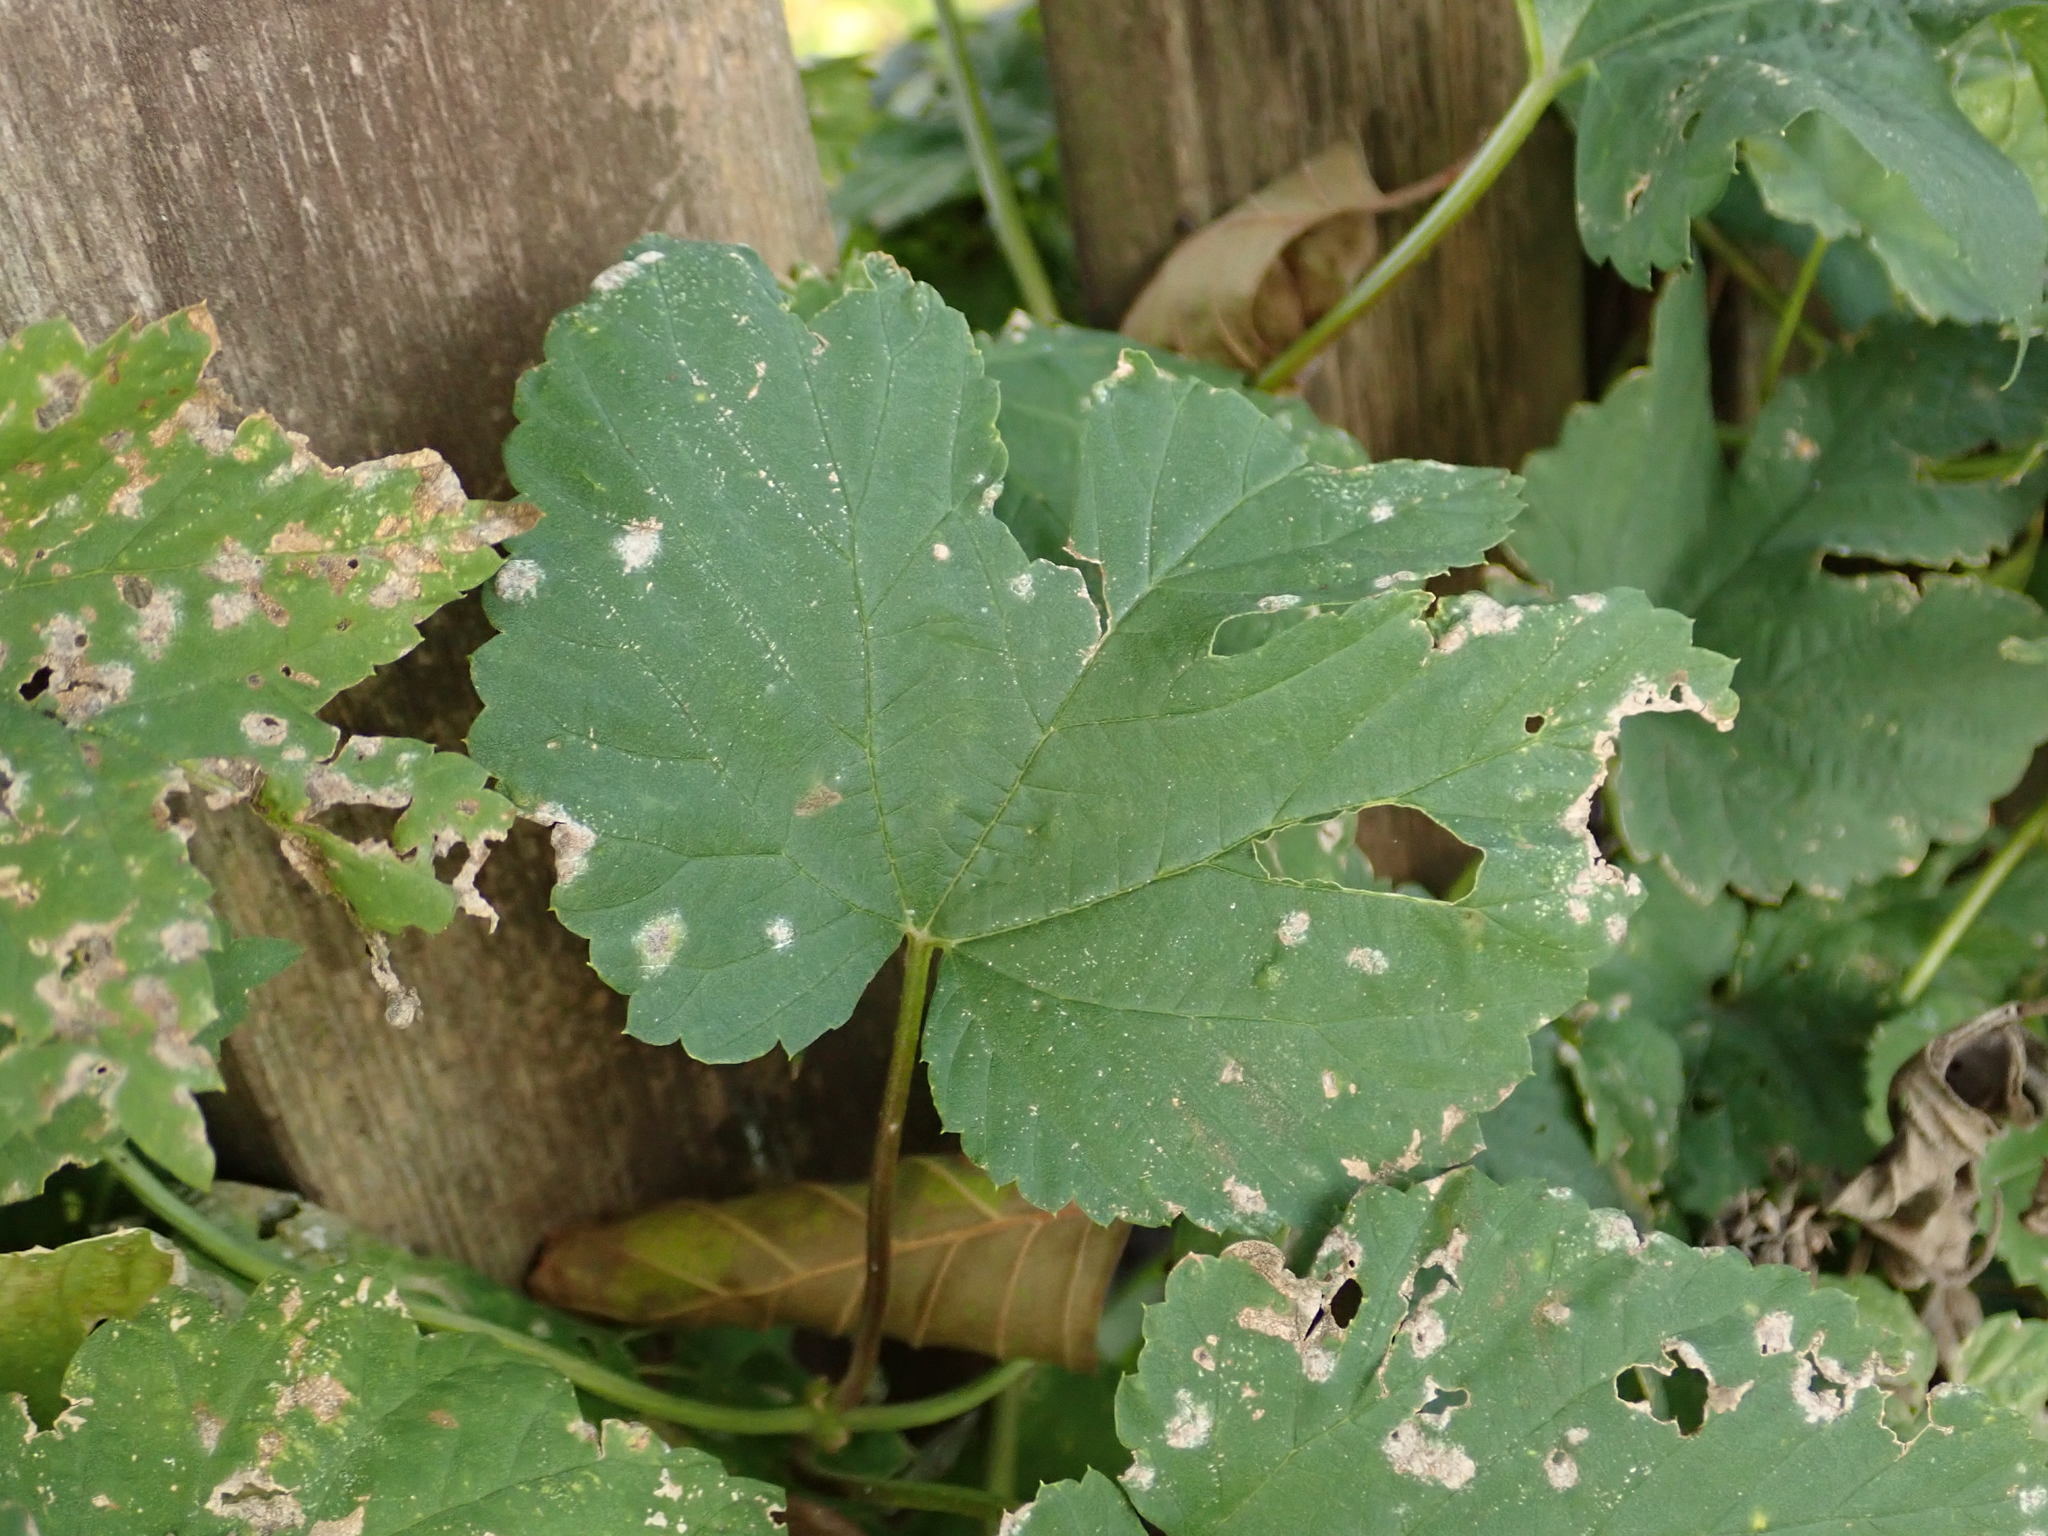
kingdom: Plantae
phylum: Tracheophyta
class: Magnoliopsida
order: Rosales
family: Cannabaceae
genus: Humulus
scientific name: Humulus lupulus
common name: Hop
